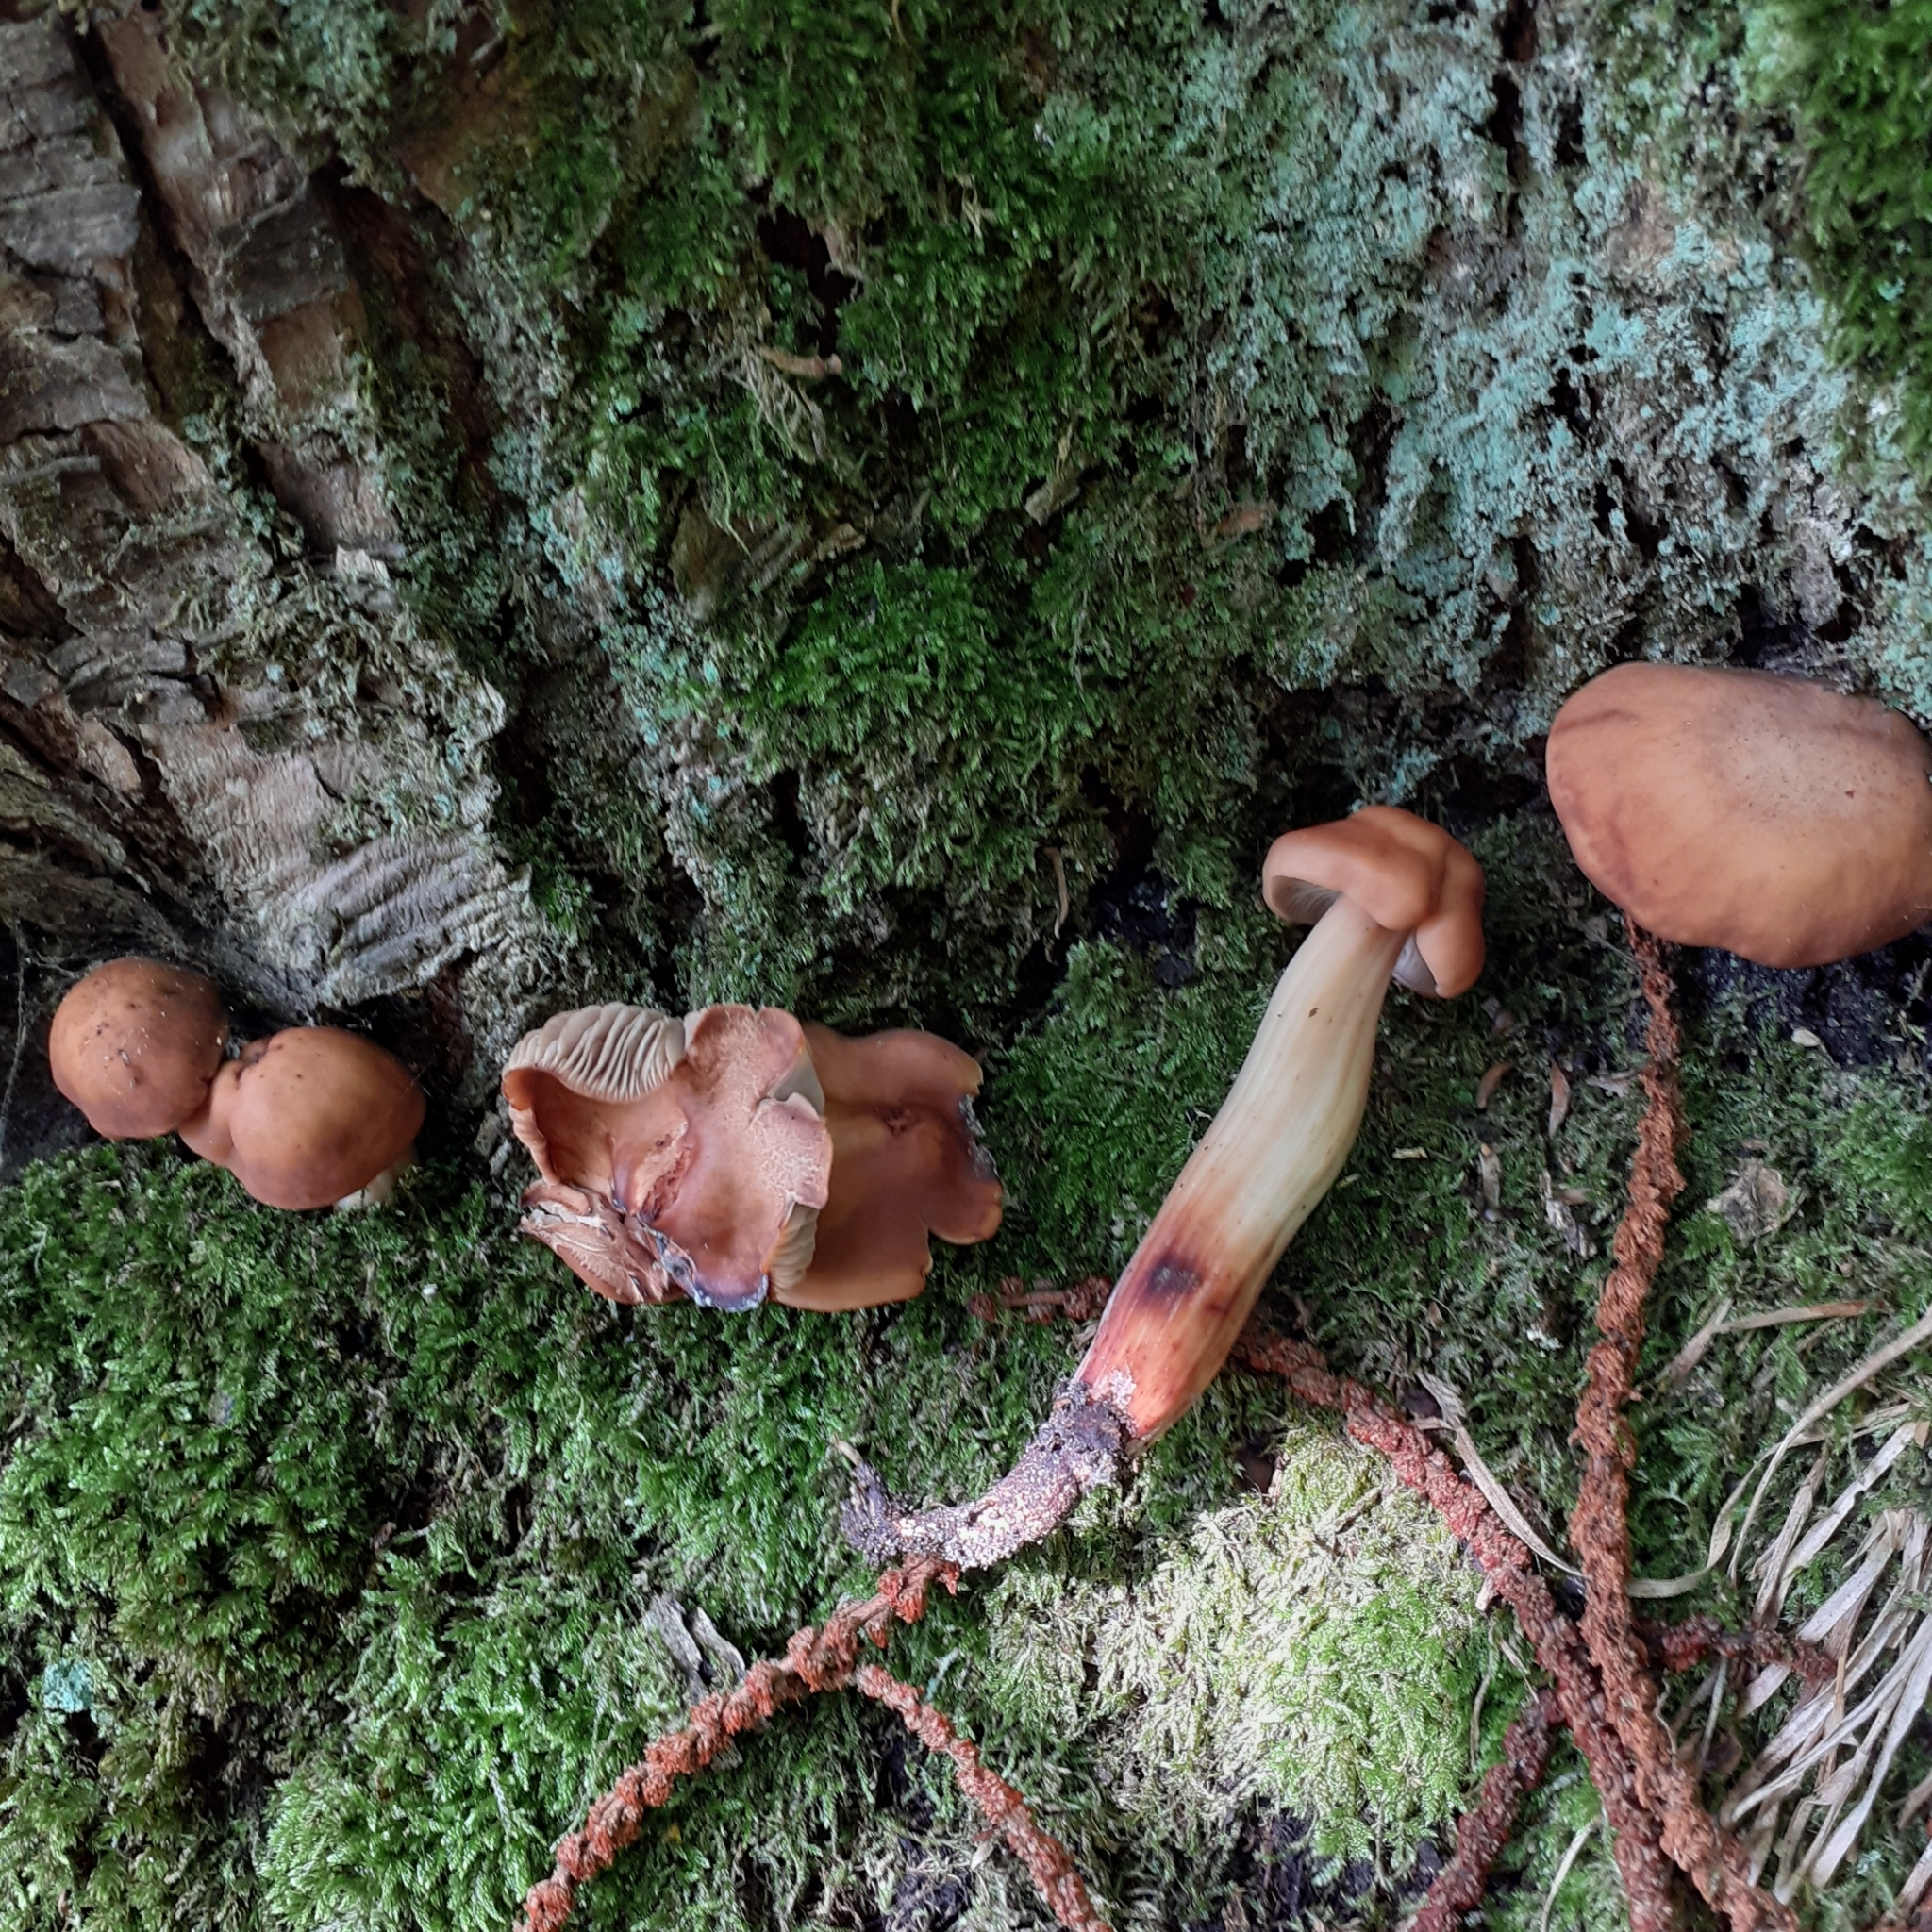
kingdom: Fungi
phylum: Basidiomycota
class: Agaricomycetes
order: Agaricales
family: Omphalotaceae
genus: Gymnopus
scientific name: Gymnopus fusipes
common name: Spindle shank
